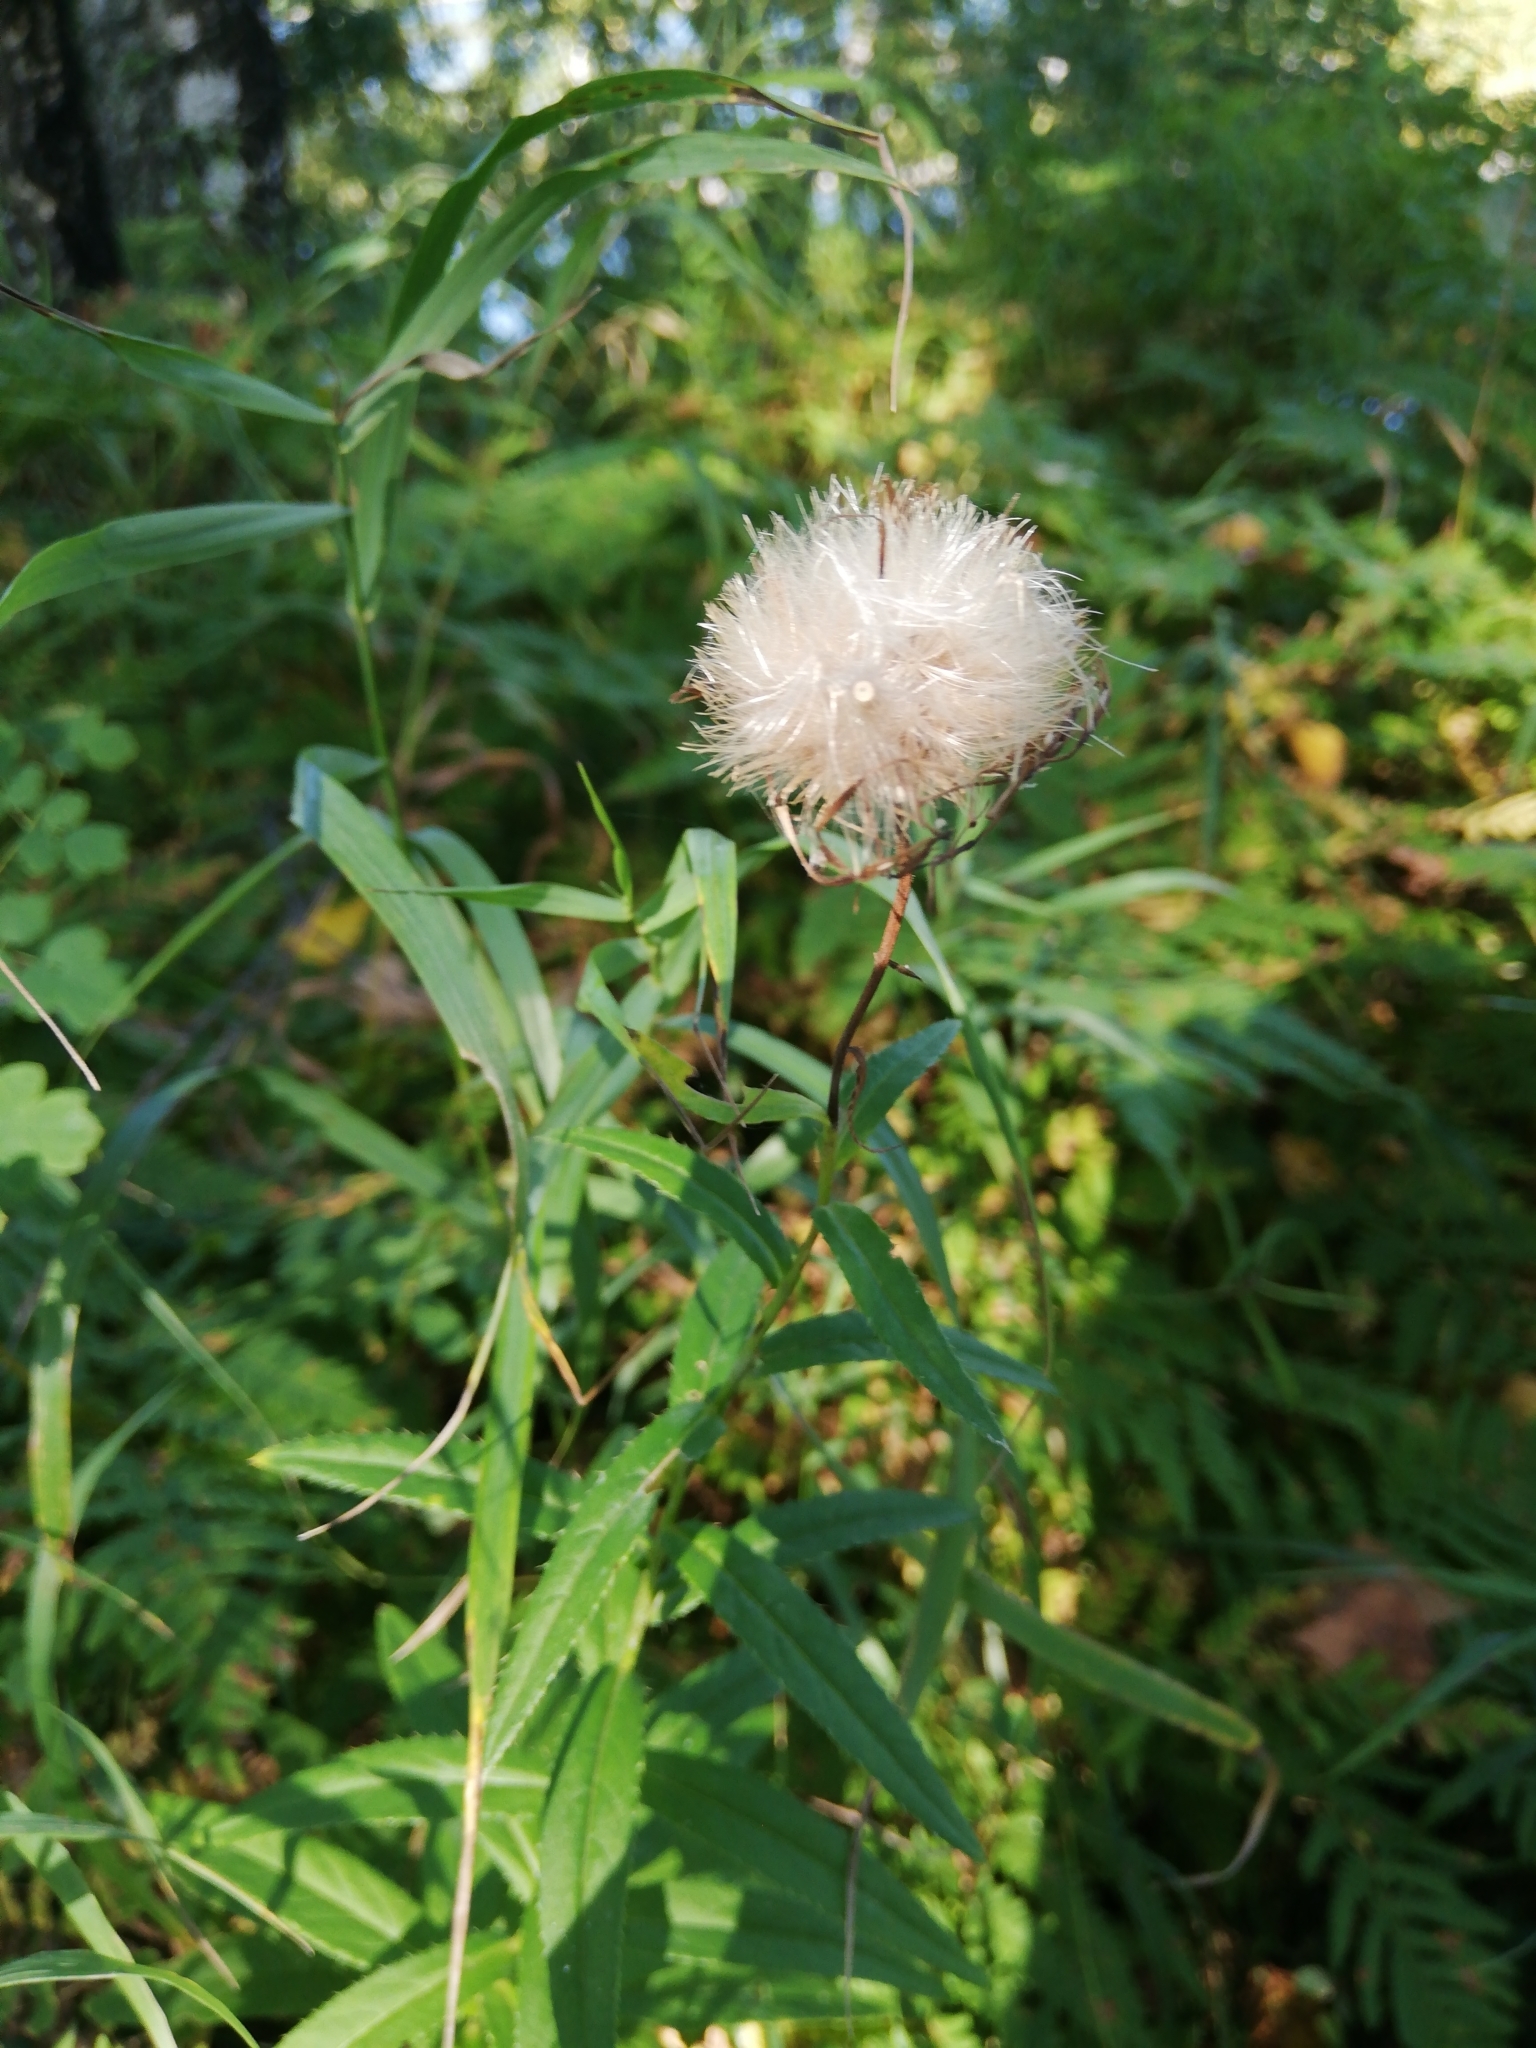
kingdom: Plantae
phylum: Tracheophyta
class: Magnoliopsida
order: Asterales
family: Asteraceae
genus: Cirsium
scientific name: Cirsium serratuloides
